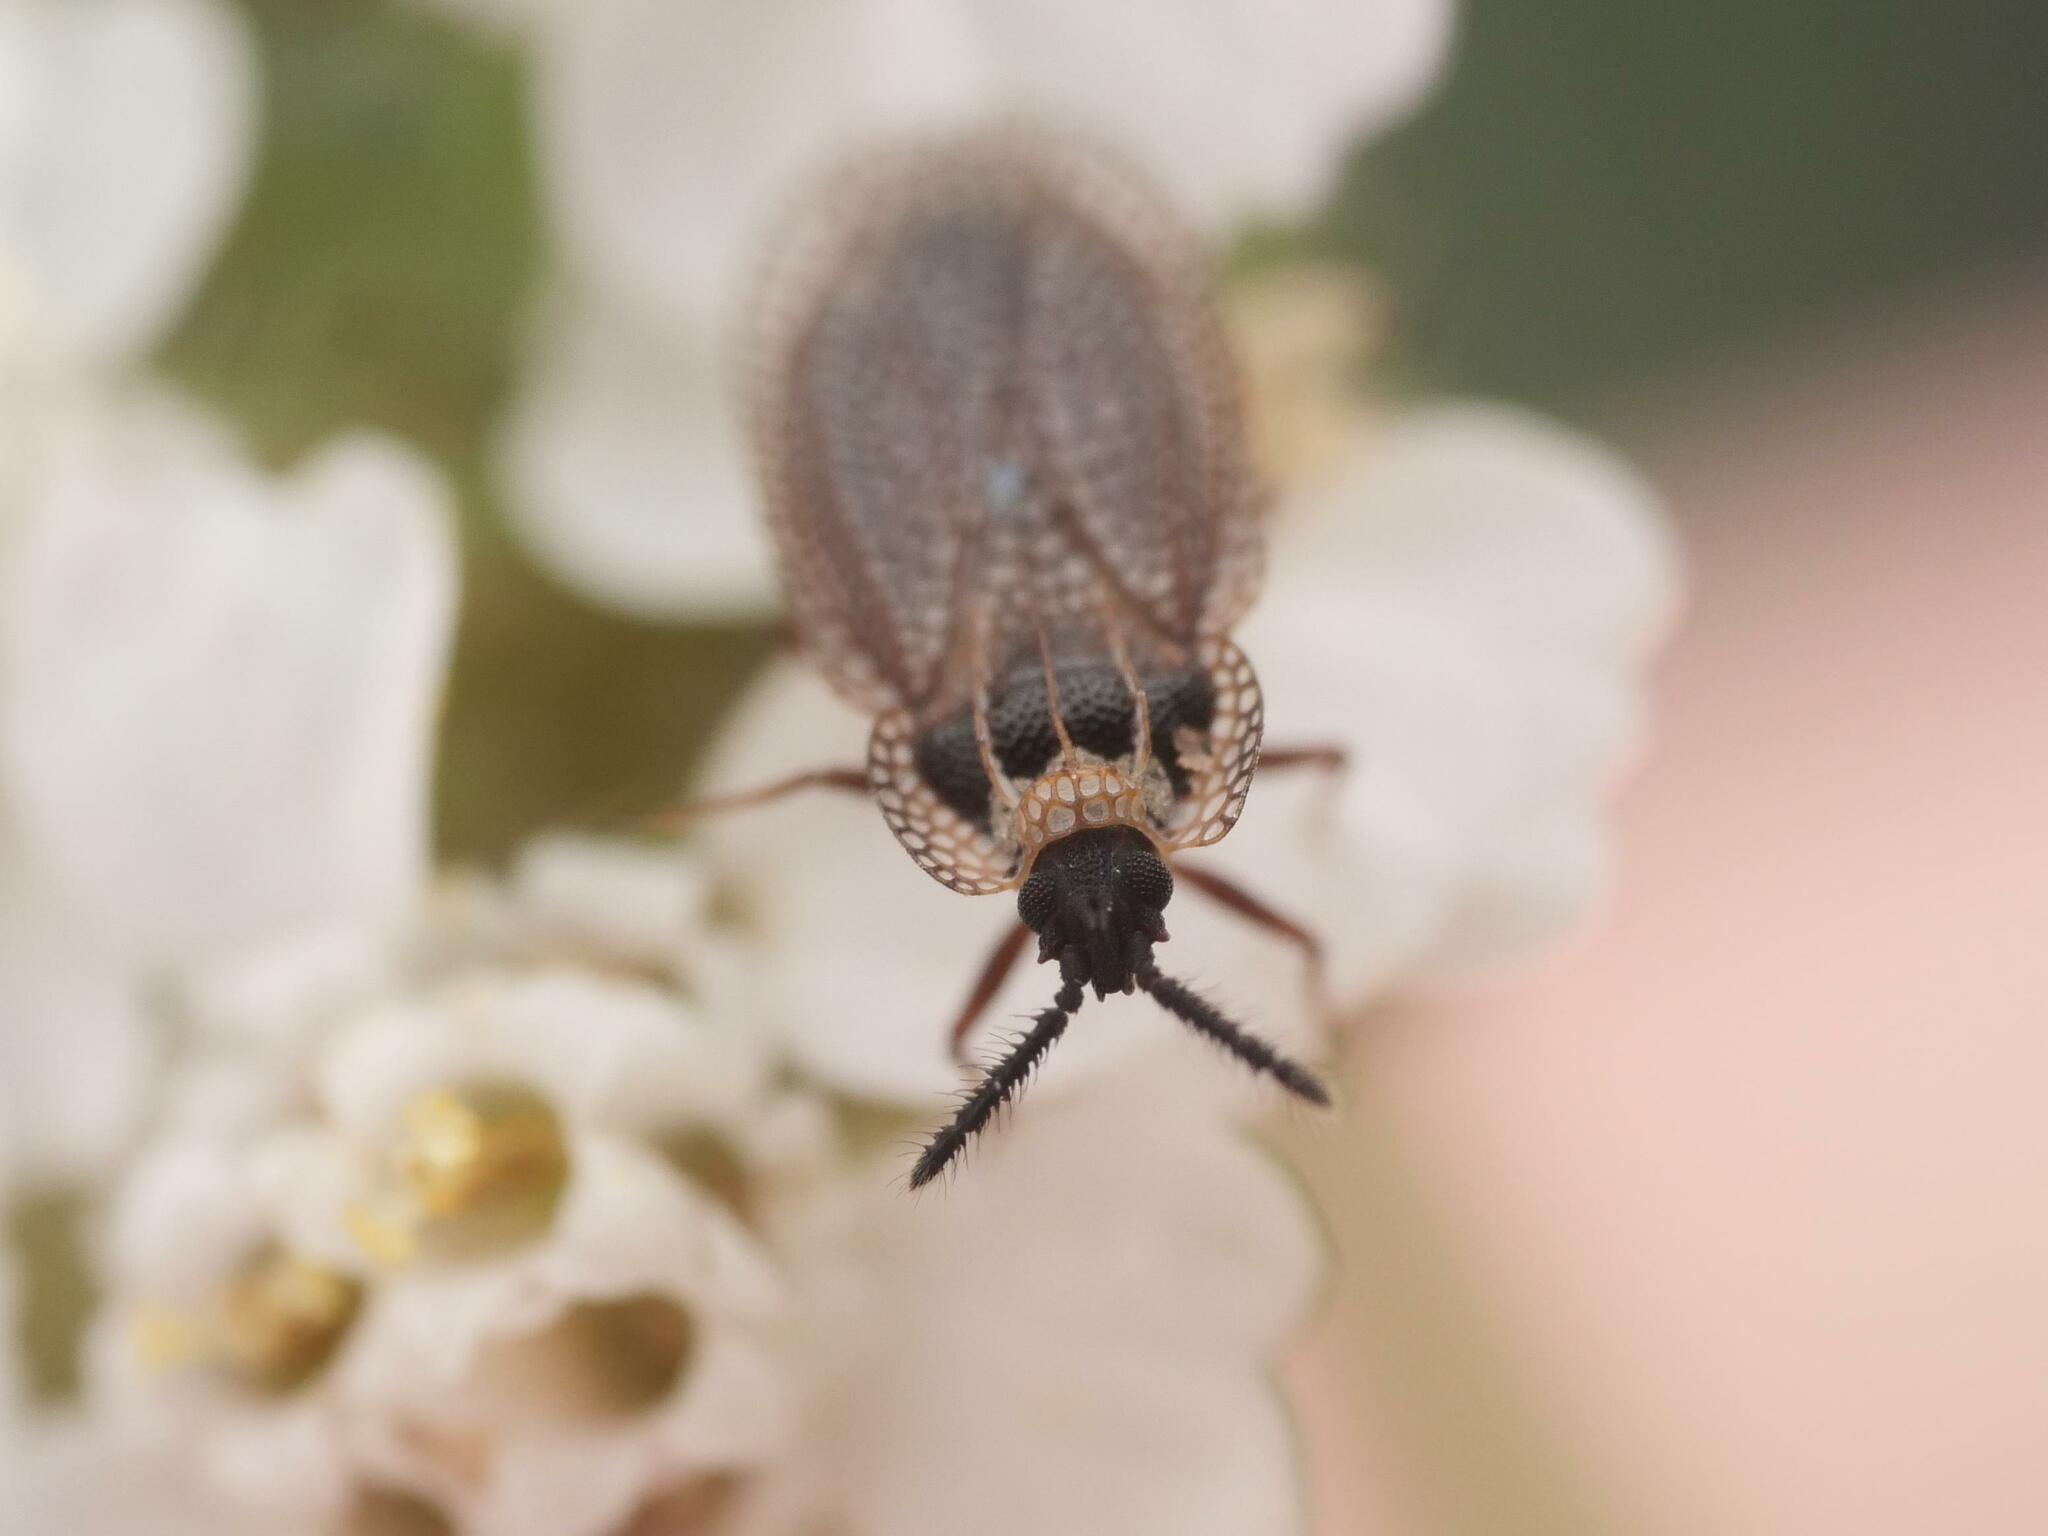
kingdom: Animalia
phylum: Arthropoda
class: Insecta
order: Hemiptera
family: Tingidae
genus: Dictyonota
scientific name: Dictyonota tricornis
